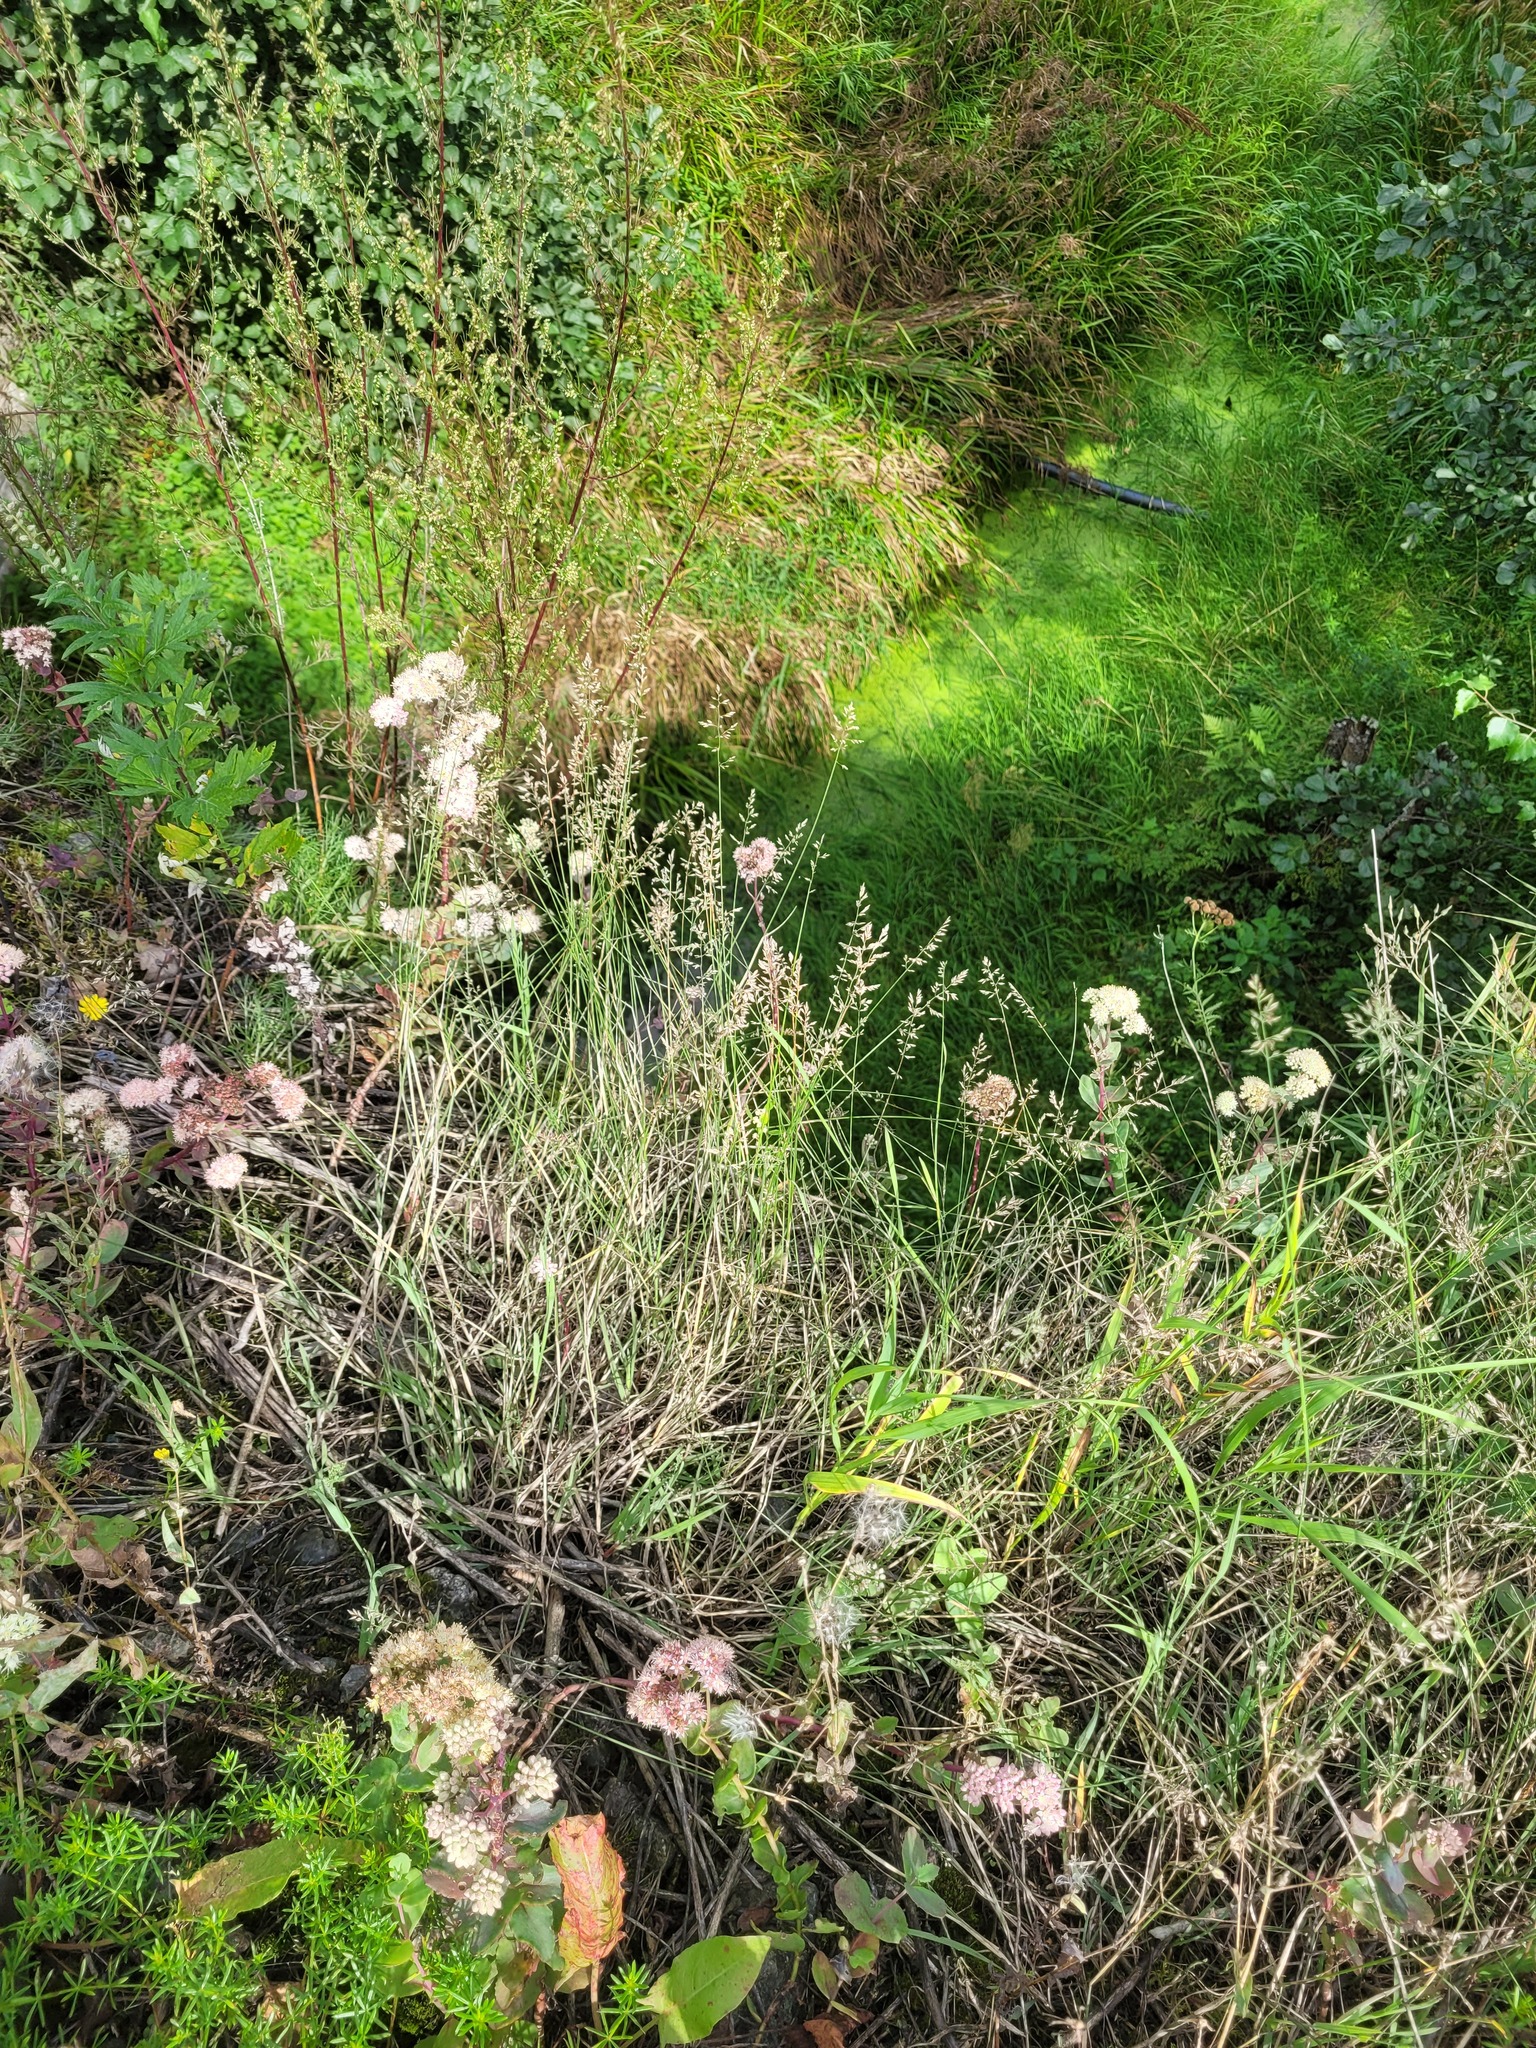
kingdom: Plantae
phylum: Tracheophyta
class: Liliopsida
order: Poales
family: Poaceae
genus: Poa
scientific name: Poa compressa
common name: Canada bluegrass
